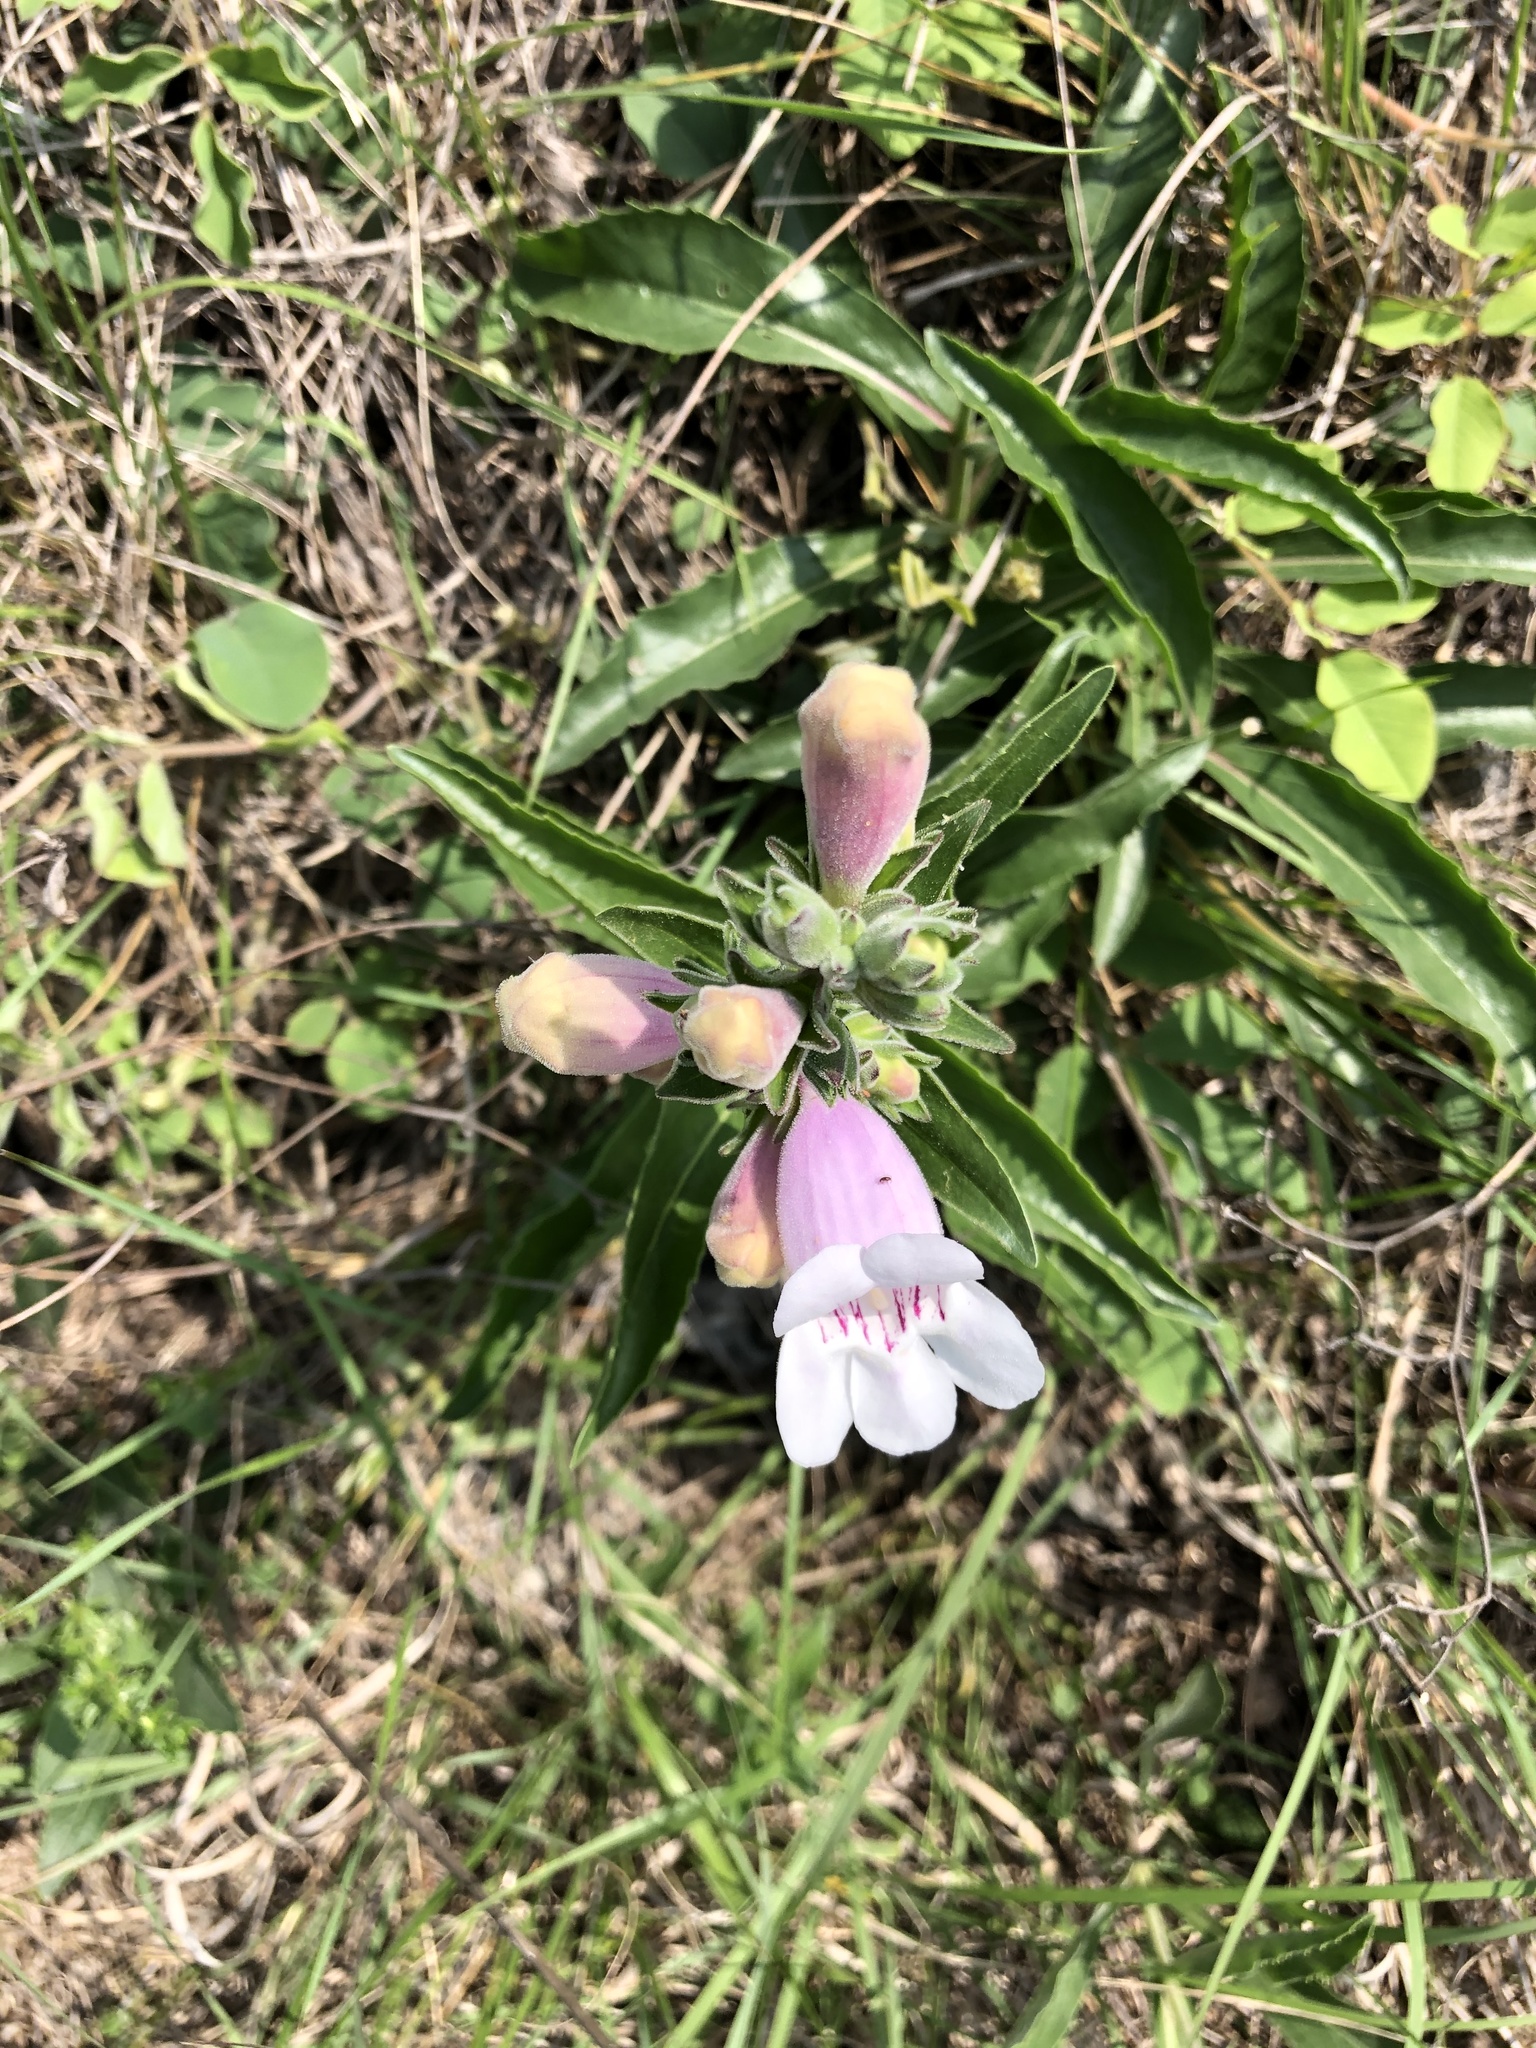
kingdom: Plantae
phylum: Tracheophyta
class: Magnoliopsida
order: Lamiales
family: Plantaginaceae
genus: Penstemon
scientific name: Penstemon cobaea
